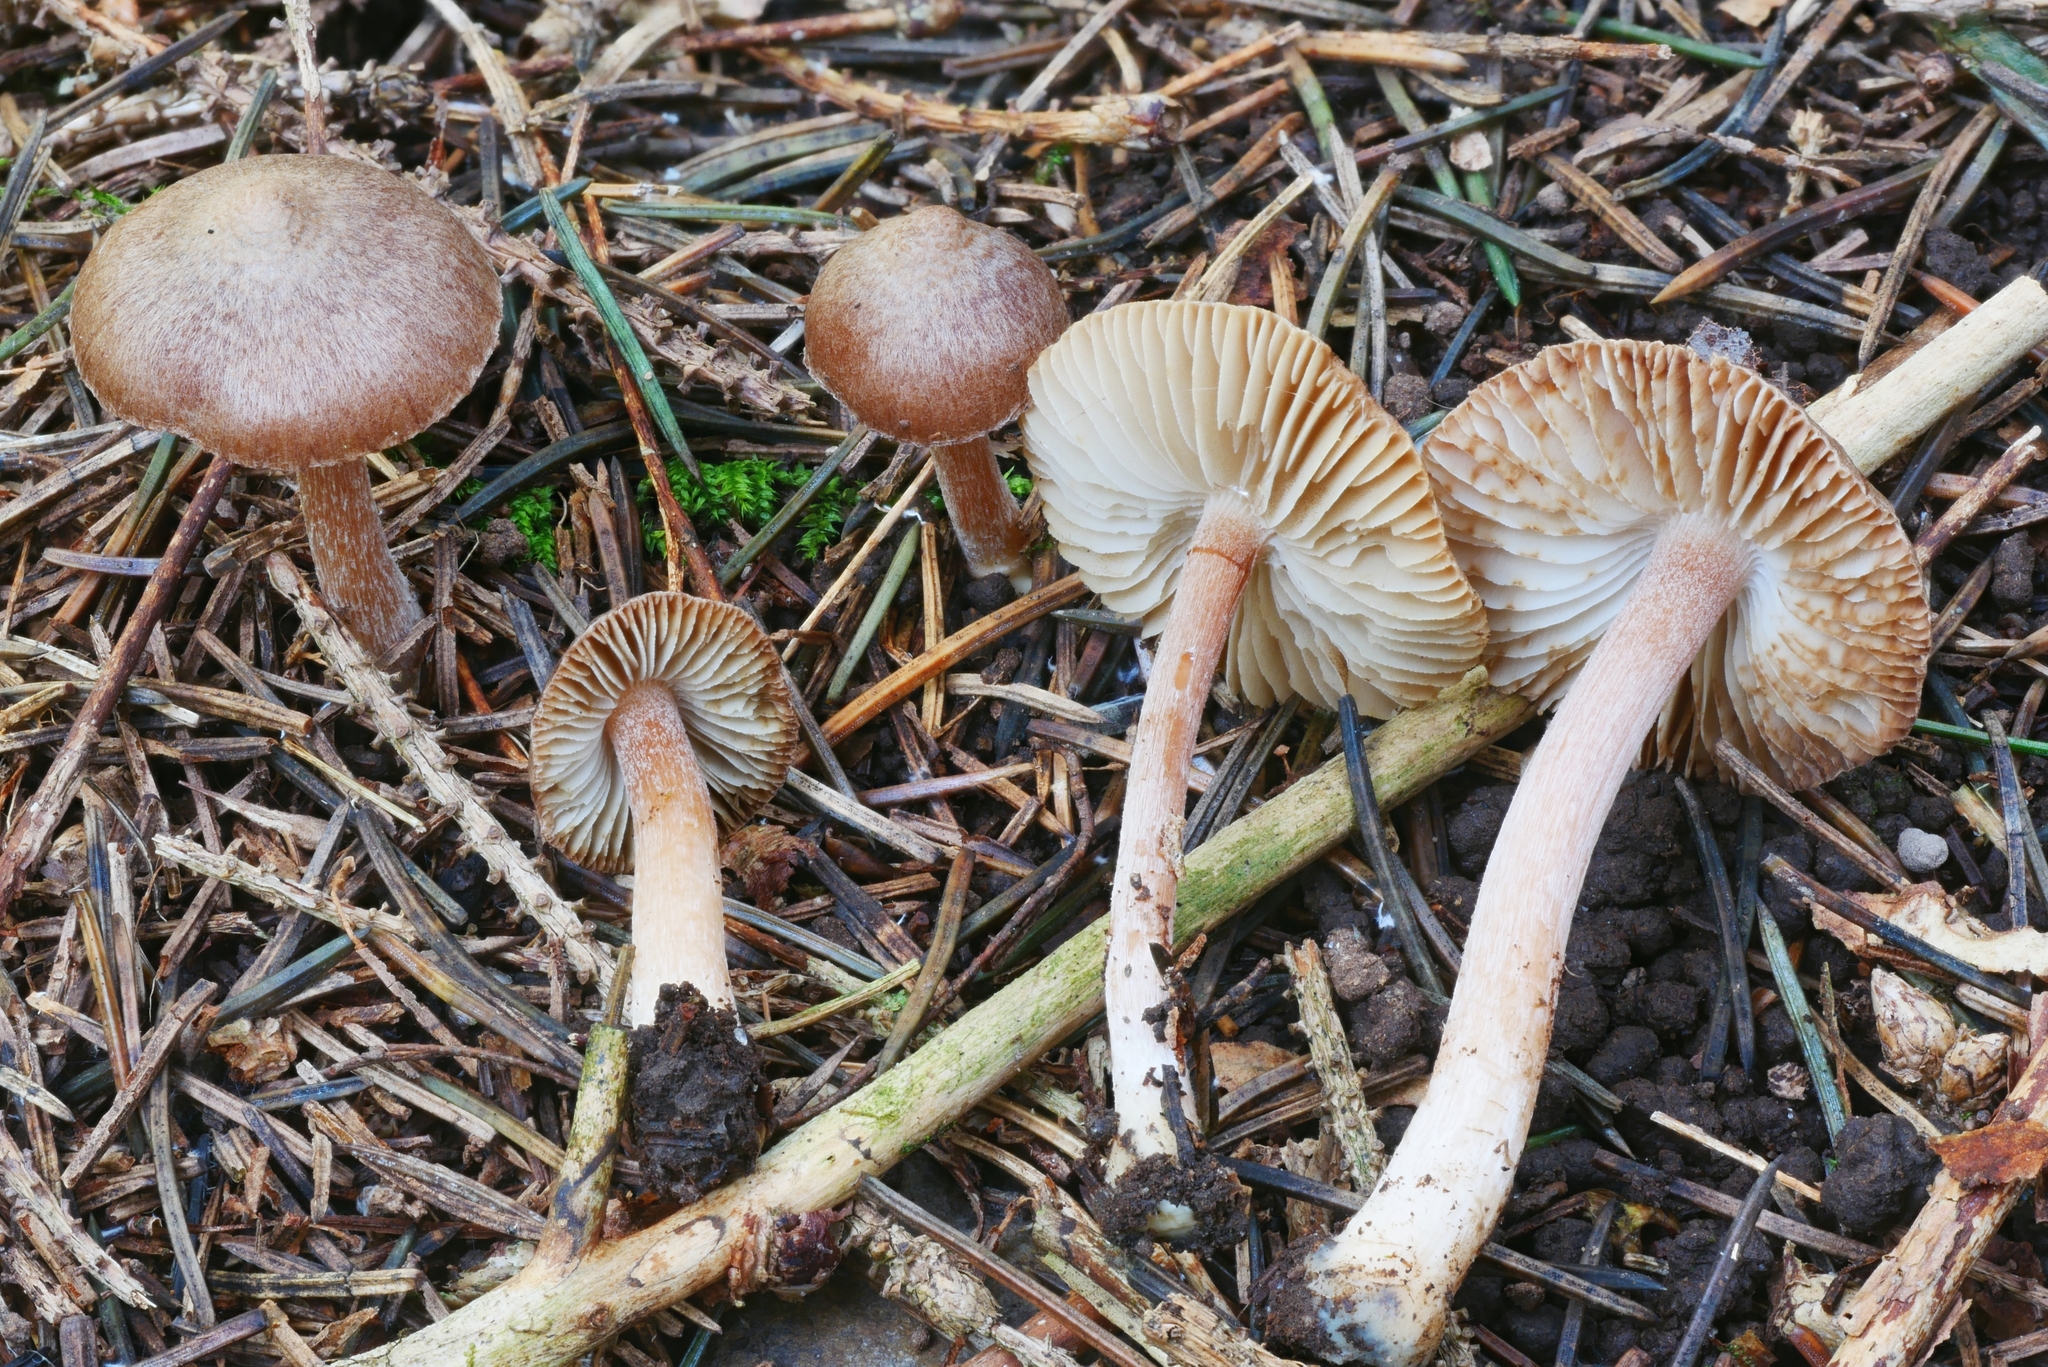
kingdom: Fungi
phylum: Basidiomycota
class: Agaricomycetes
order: Agaricales
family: Inocybaceae
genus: Inocybe
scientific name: Inocybe nitidiuscula
